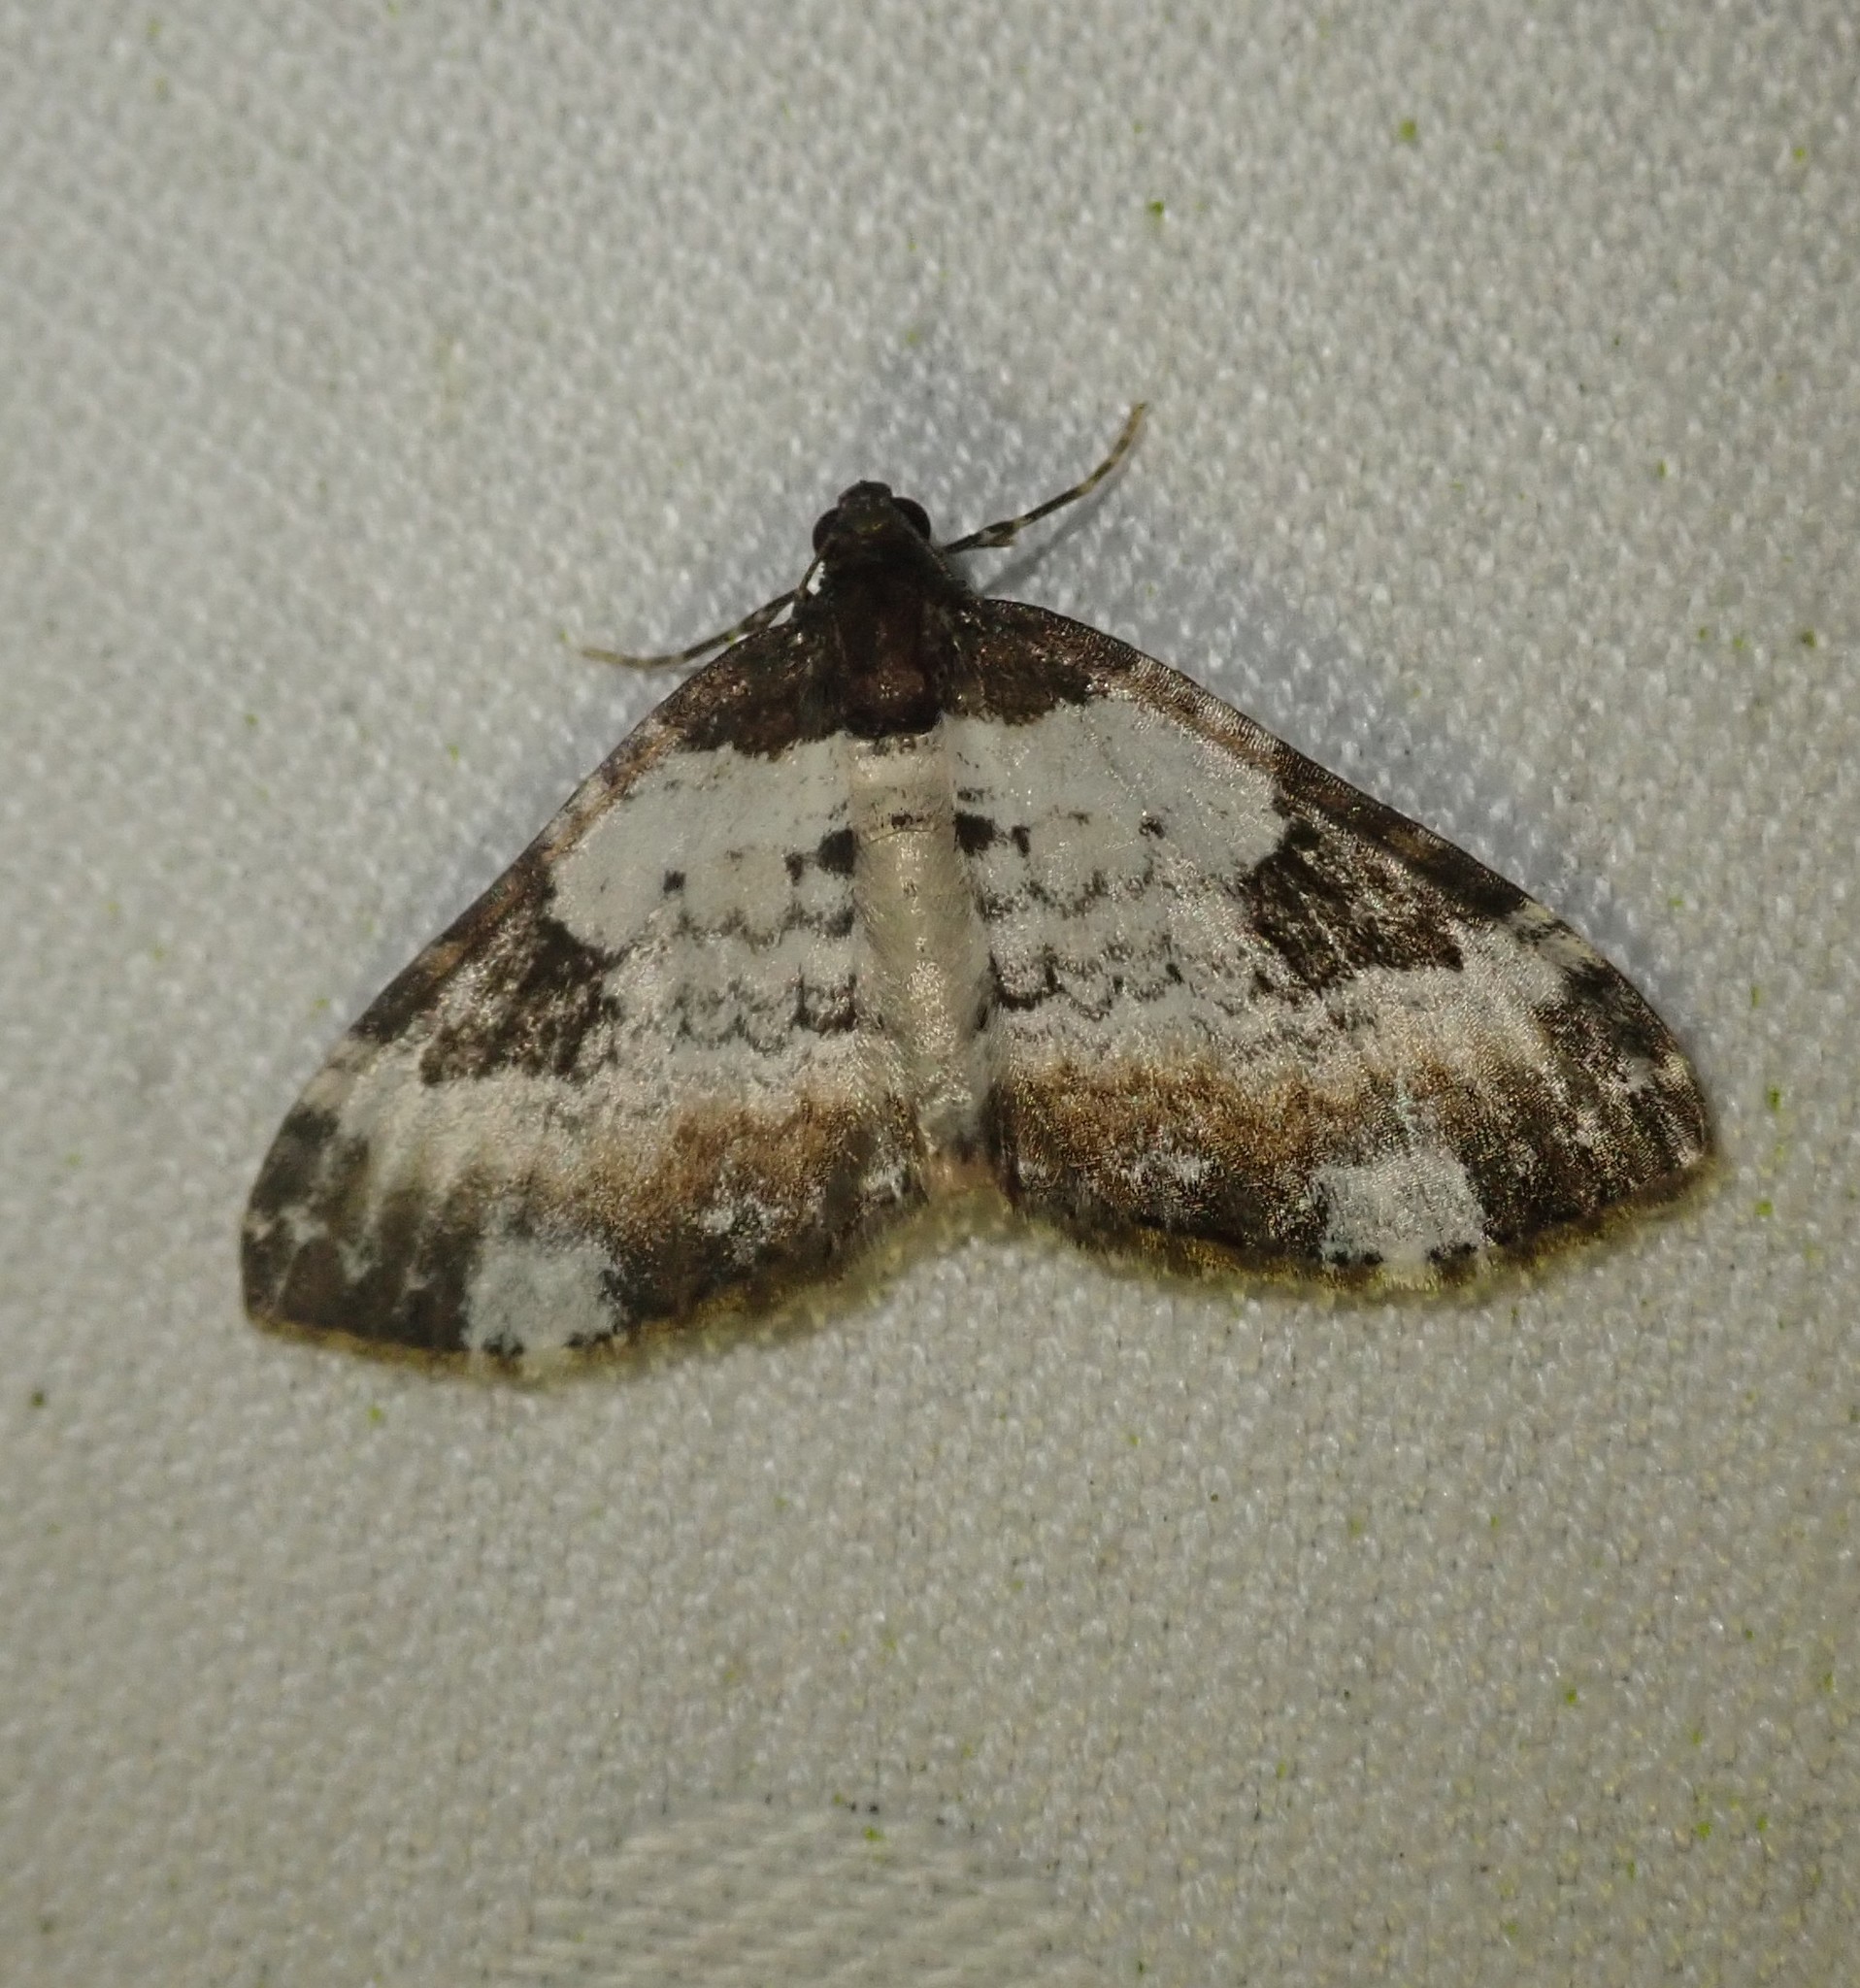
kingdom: Animalia
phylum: Arthropoda
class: Insecta
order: Lepidoptera
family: Geometridae
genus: Melanthia
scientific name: Melanthia procellata
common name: Pretty chalk carpet
